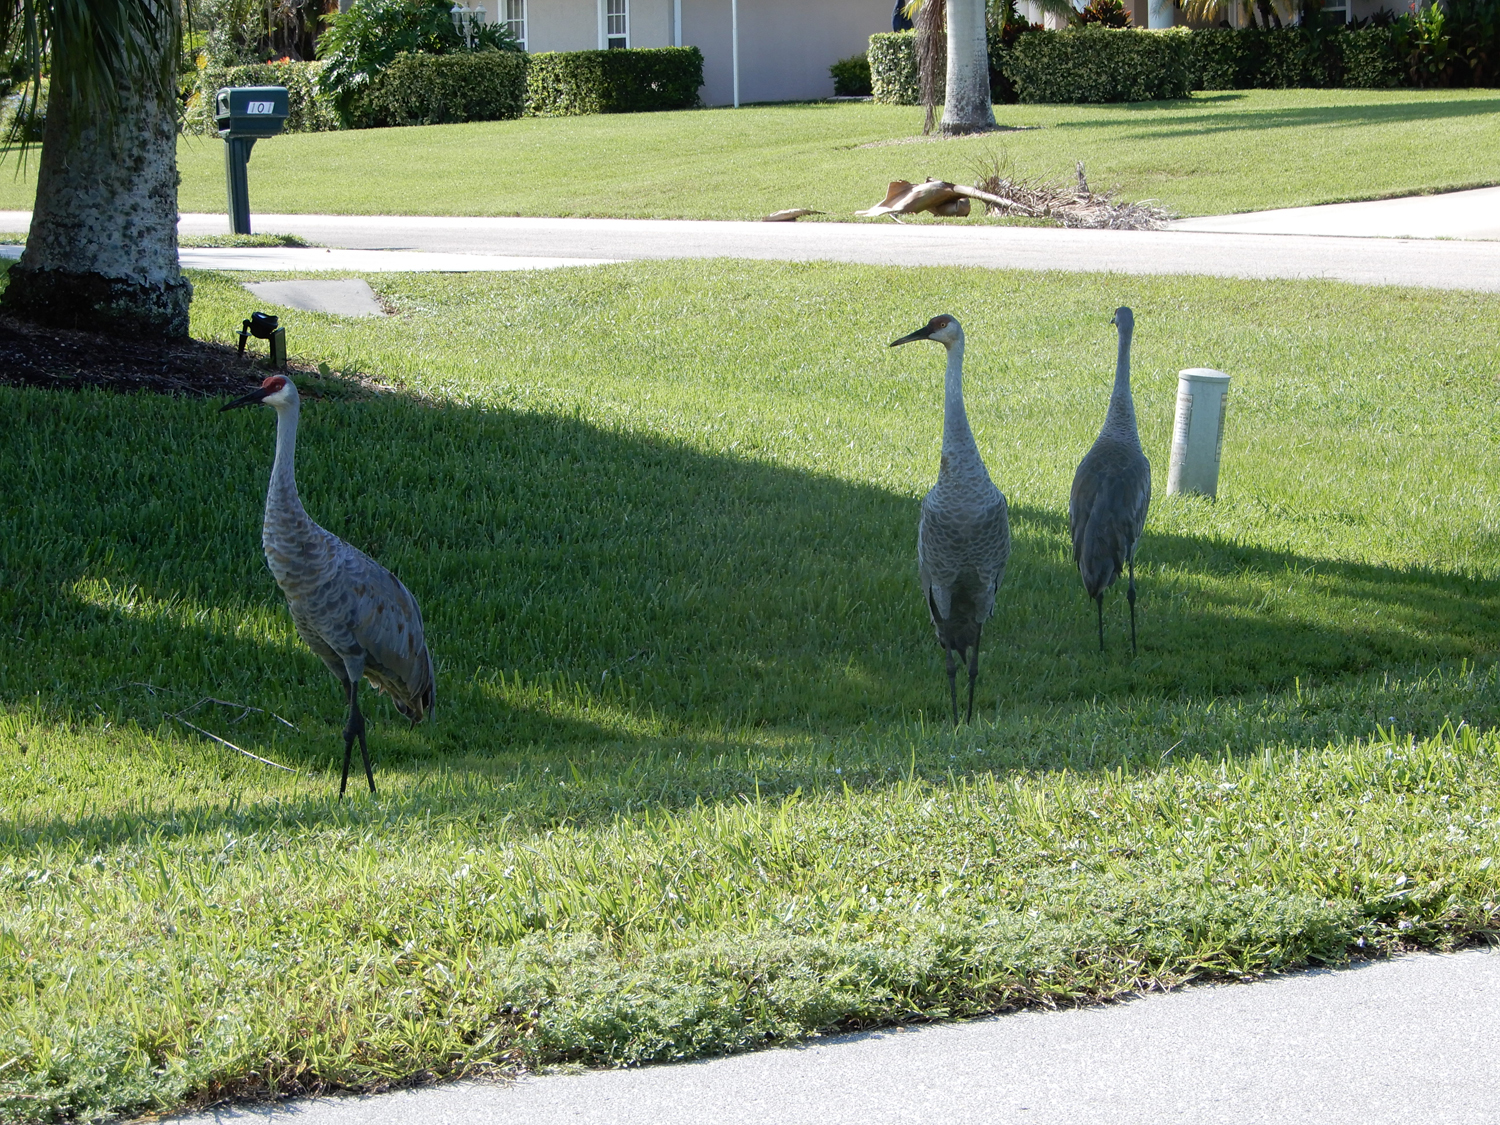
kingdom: Animalia
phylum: Chordata
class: Aves
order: Gruiformes
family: Gruidae
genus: Grus
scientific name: Grus canadensis
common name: Sandhill crane
